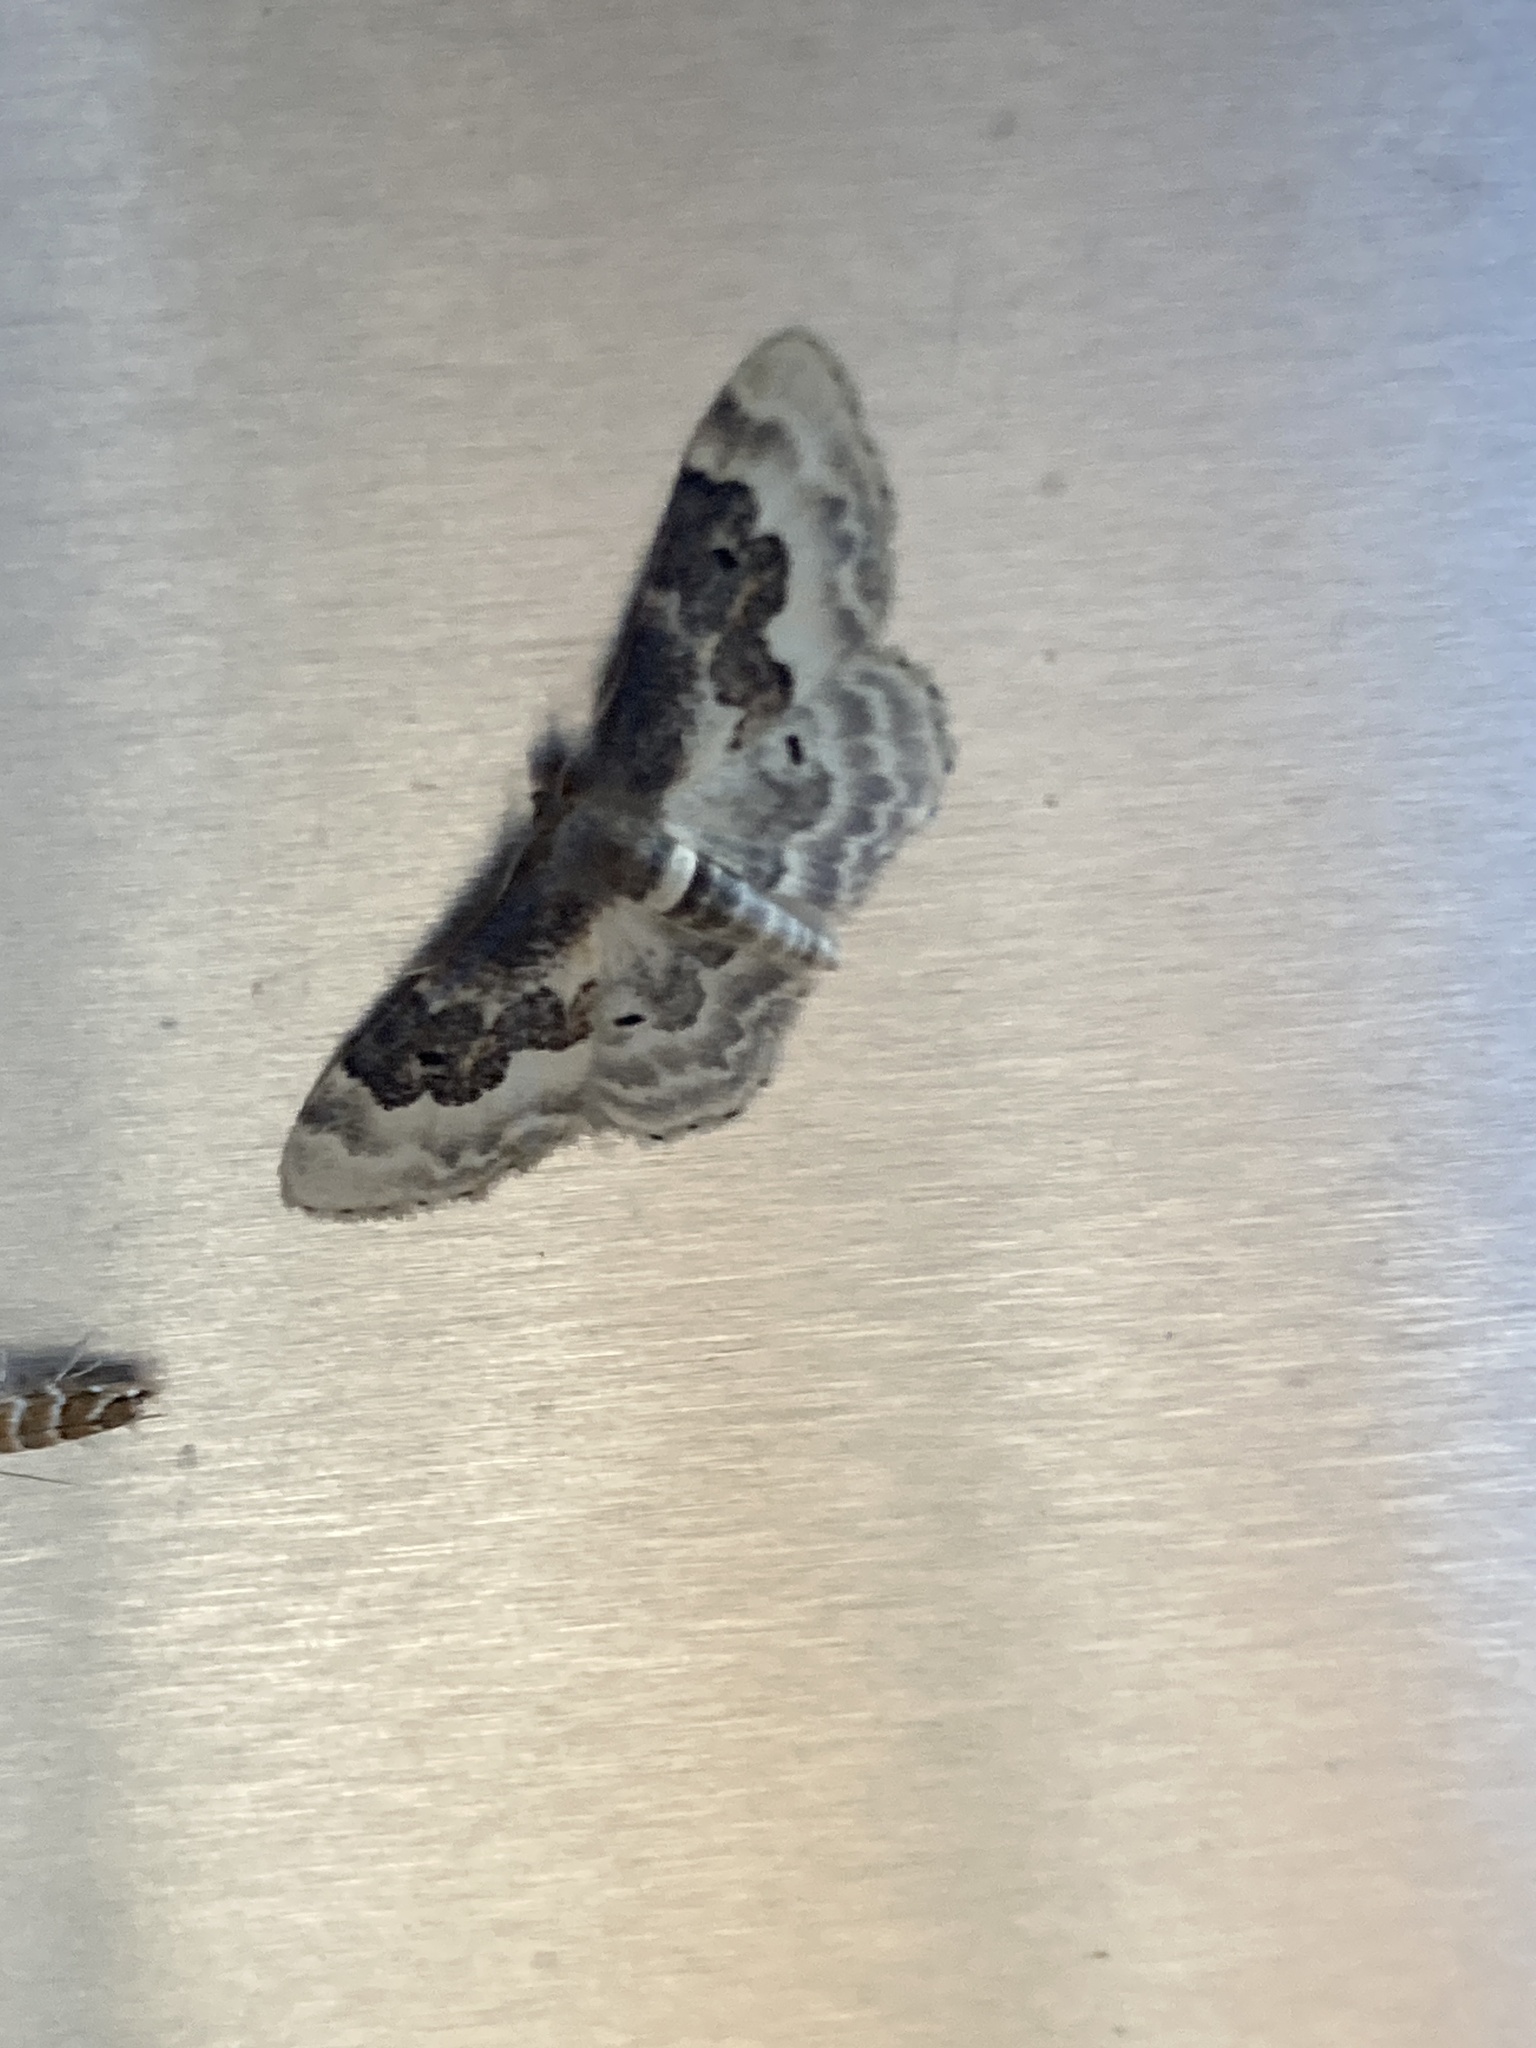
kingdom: Animalia
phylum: Arthropoda
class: Insecta
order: Lepidoptera
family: Geometridae
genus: Idaea
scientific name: Idaea rusticata
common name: Least carpet
